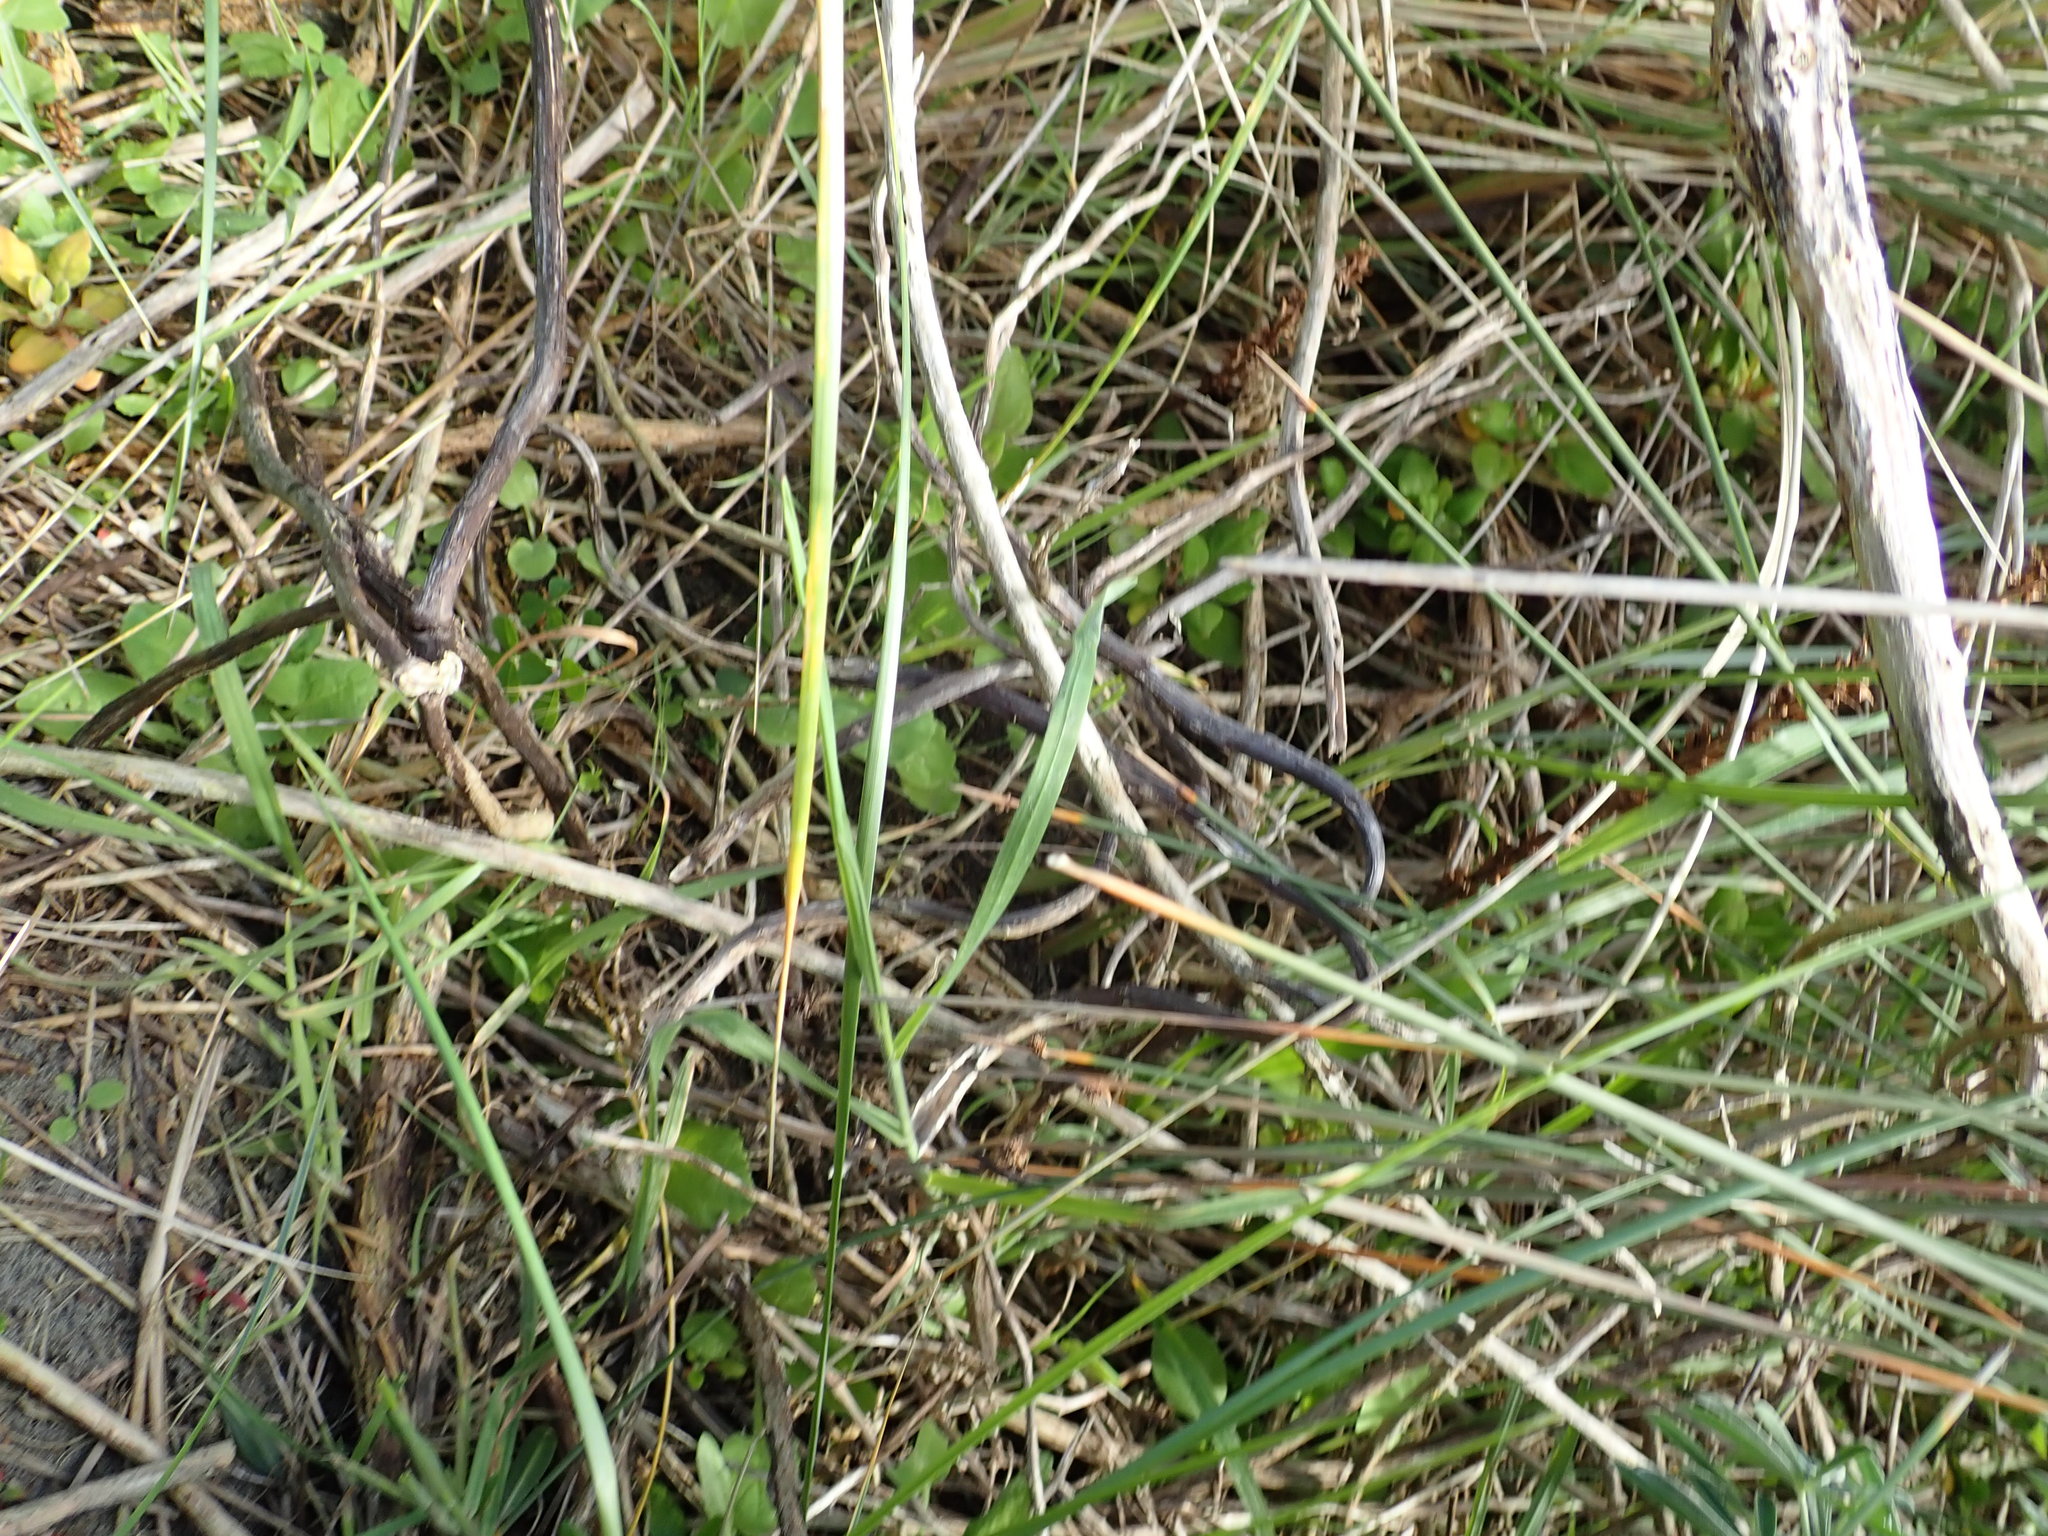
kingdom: Plantae
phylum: Tracheophyta
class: Magnoliopsida
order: Caryophyllales
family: Aizoaceae
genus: Tetragonia
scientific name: Tetragonia implexicoma
